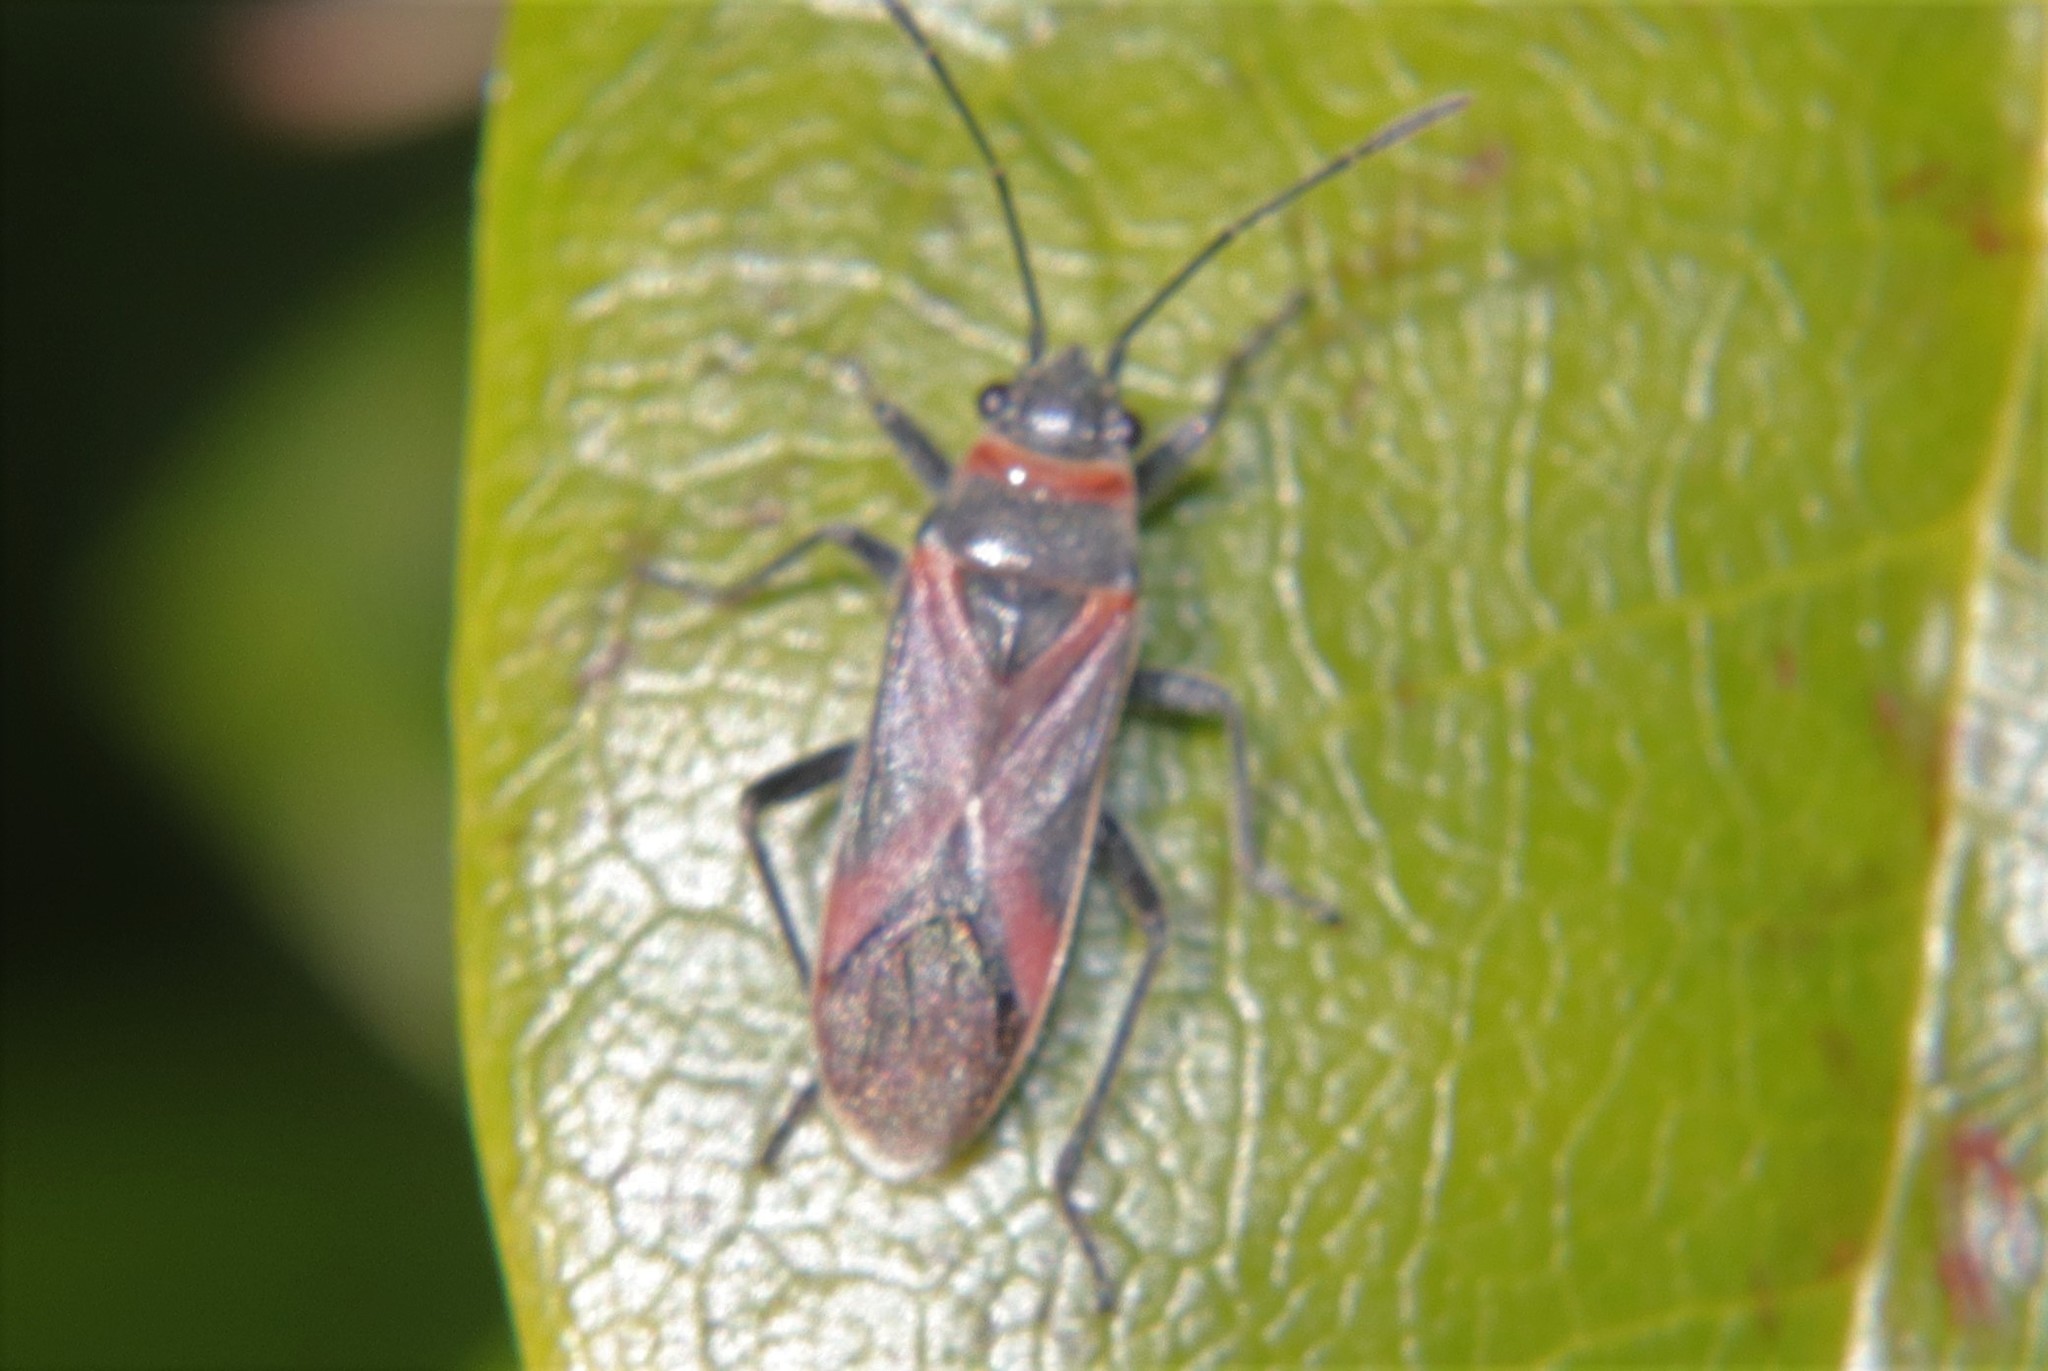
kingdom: Animalia
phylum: Arthropoda
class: Insecta
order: Hemiptera
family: Lygaeidae
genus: Arocatus
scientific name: Arocatus rusticus
